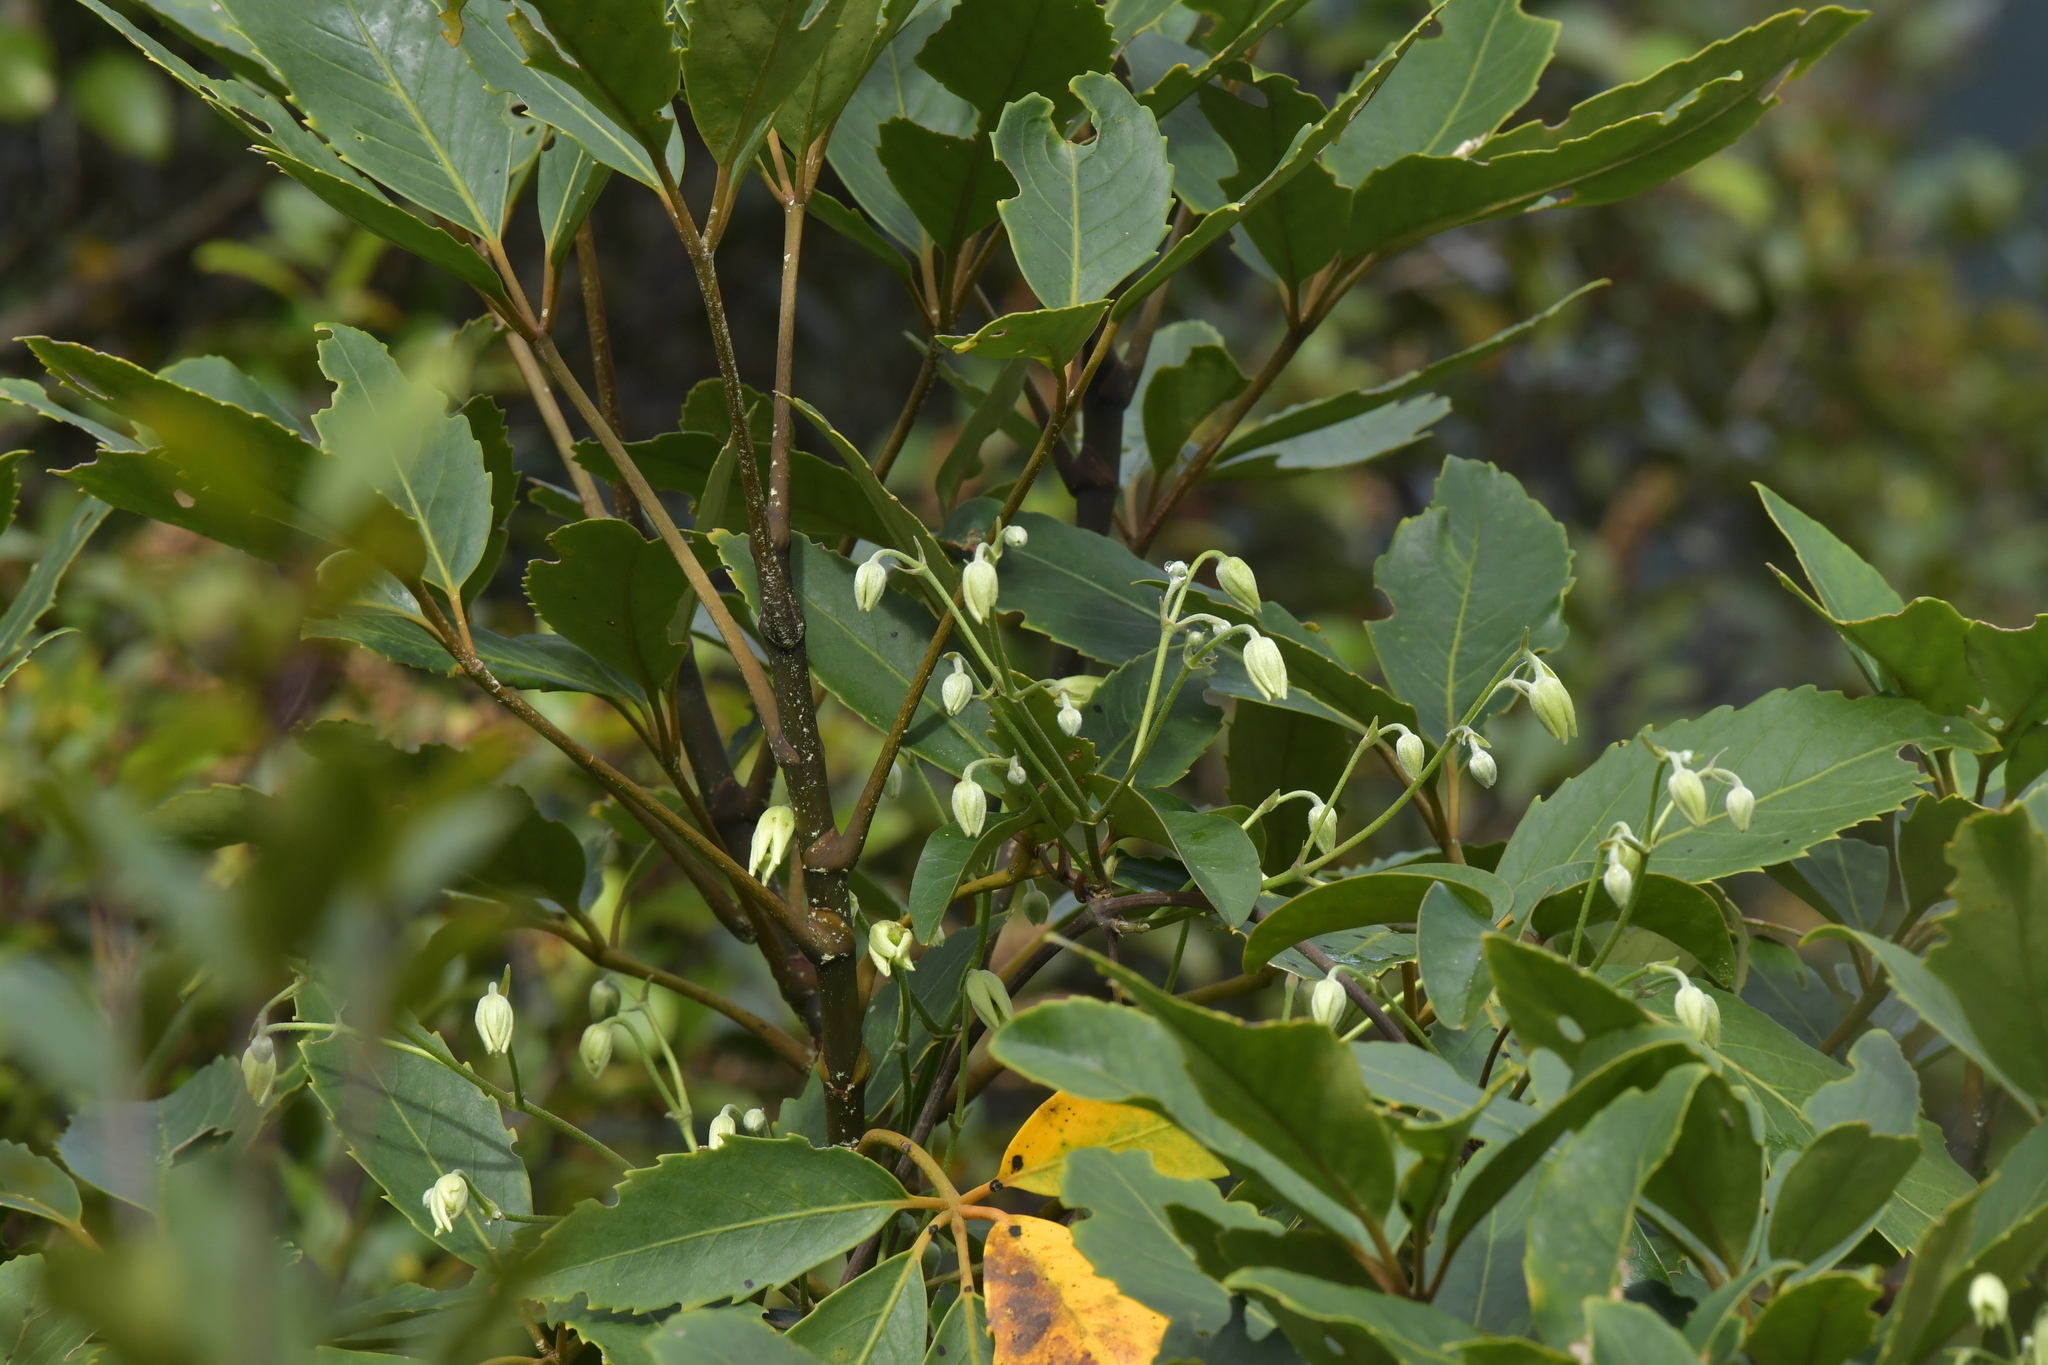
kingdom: Plantae
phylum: Tracheophyta
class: Magnoliopsida
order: Ranunculales
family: Ranunculaceae
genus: Clematis
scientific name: Clematis paniculata
